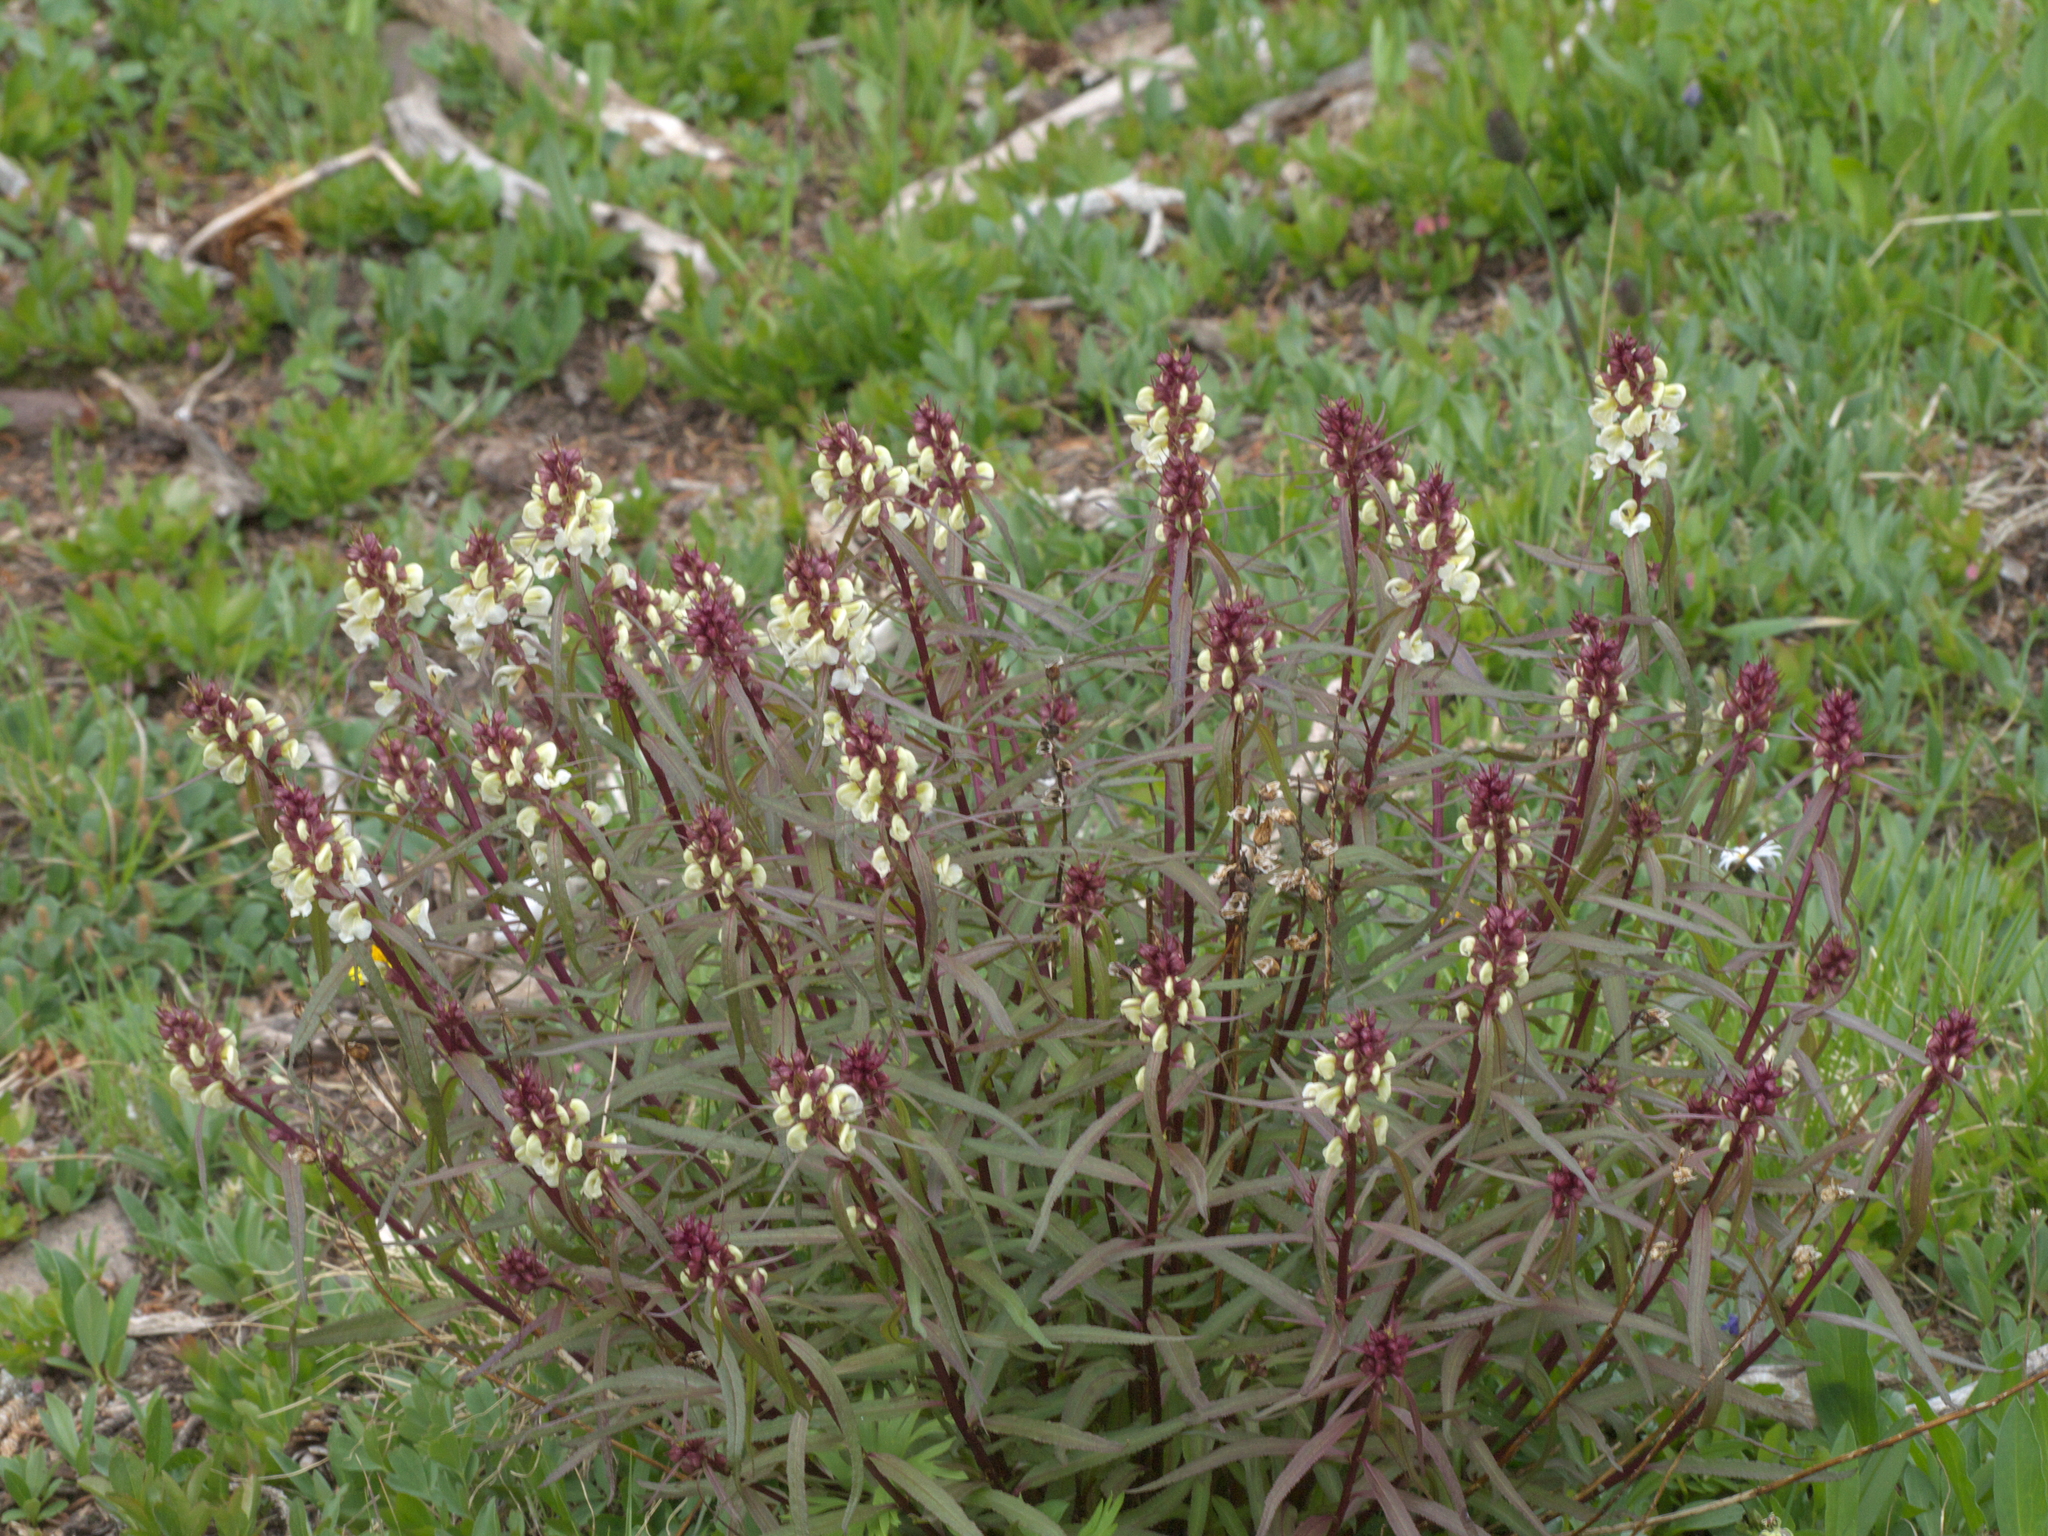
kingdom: Plantae
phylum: Tracheophyta
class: Magnoliopsida
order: Lamiales
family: Orobanchaceae
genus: Pedicularis
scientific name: Pedicularis racemosa
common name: Leafy lousewort
